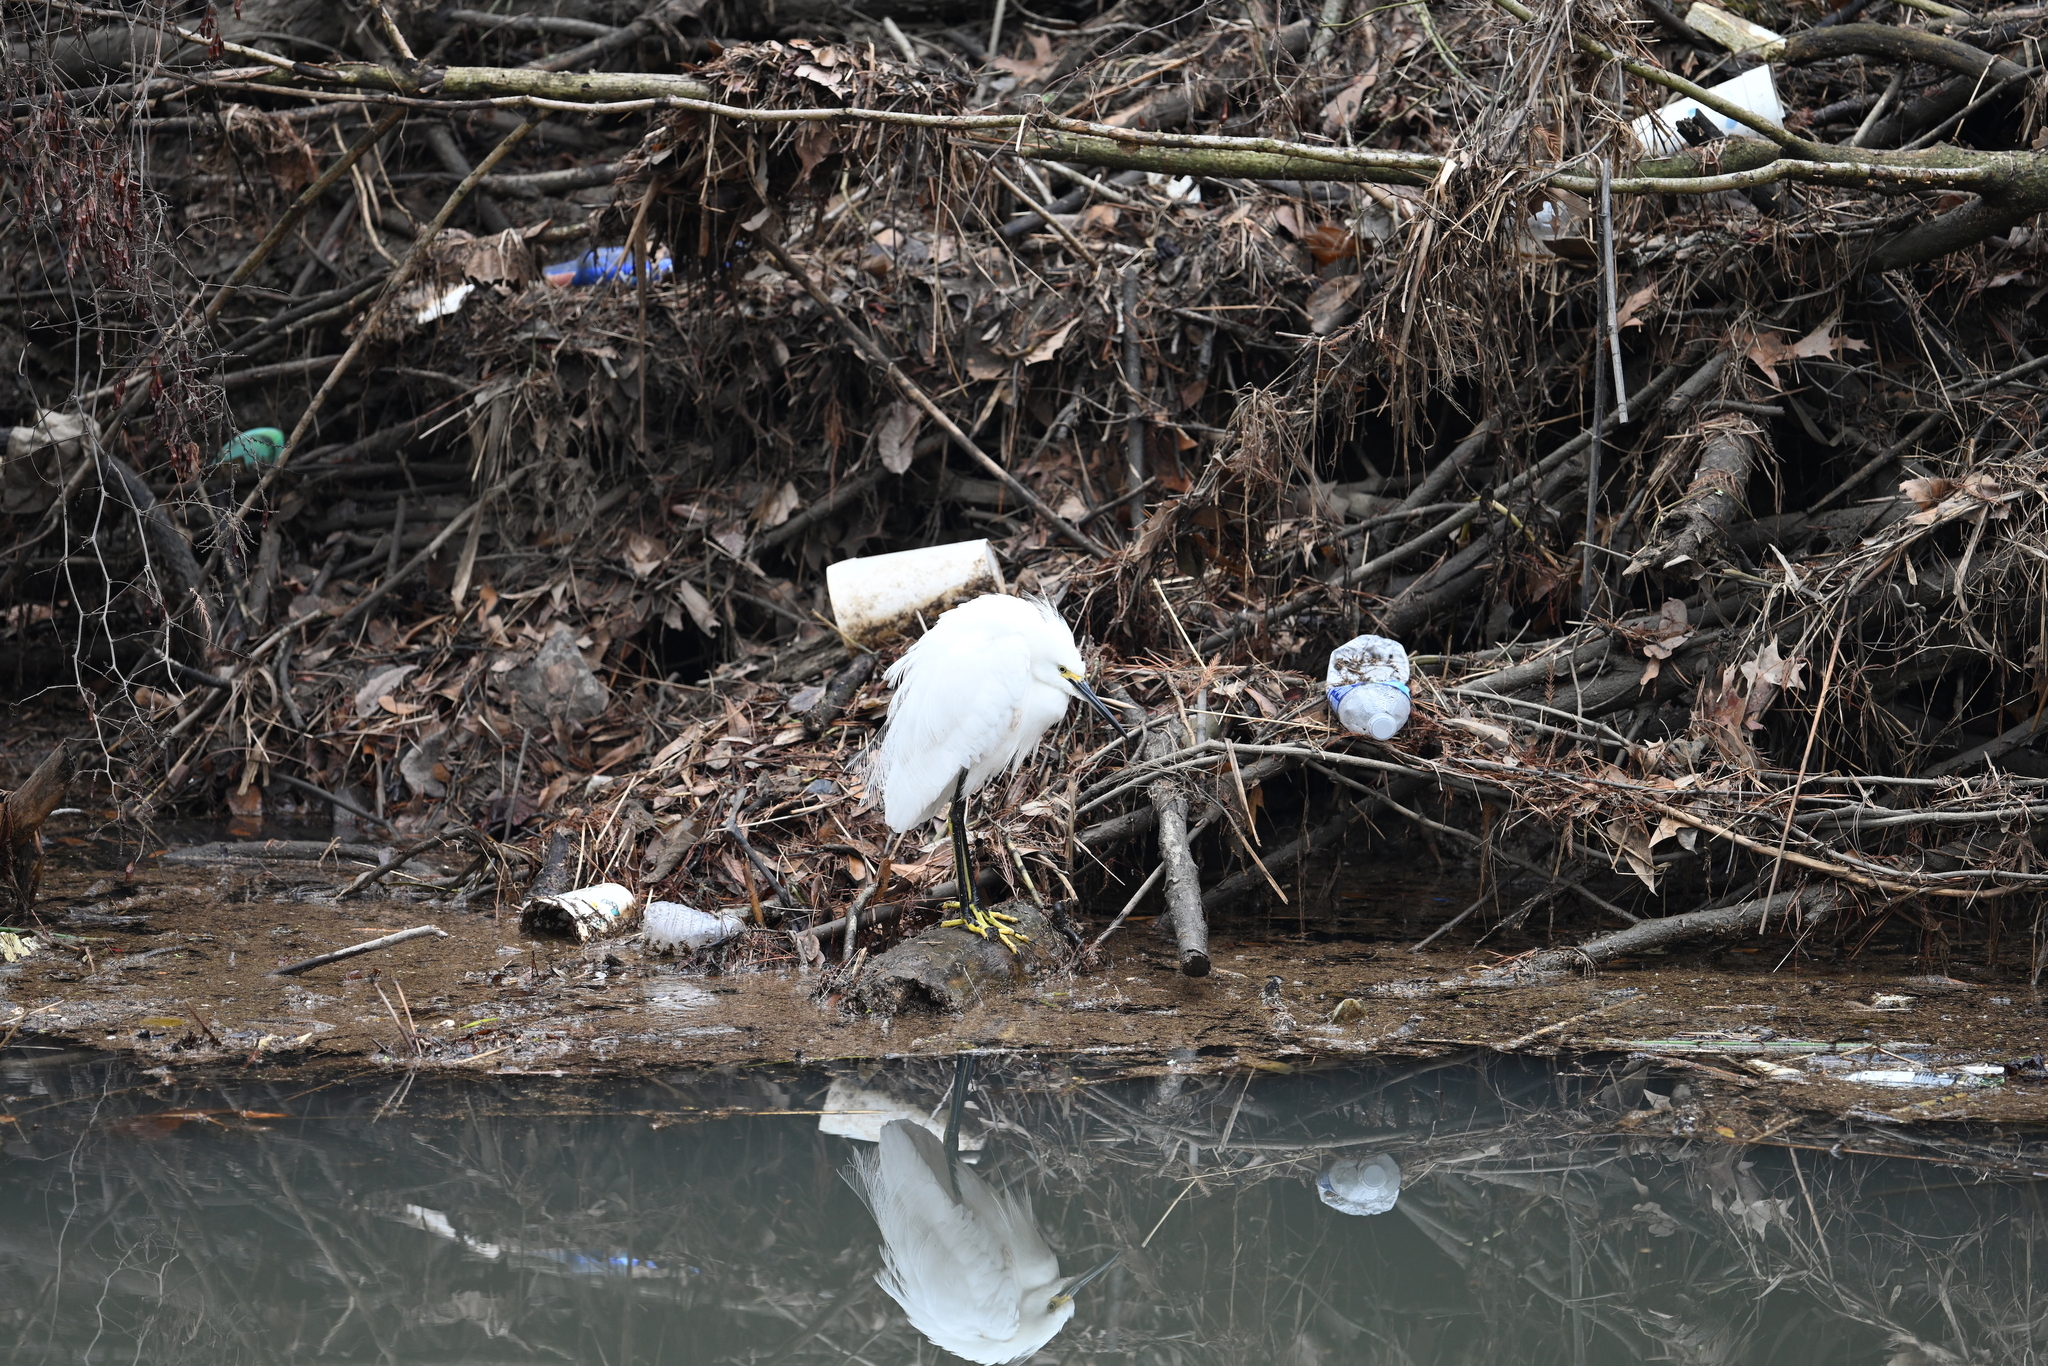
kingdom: Animalia
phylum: Chordata
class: Aves
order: Pelecaniformes
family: Ardeidae
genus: Egretta
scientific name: Egretta thula
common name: Snowy egret
